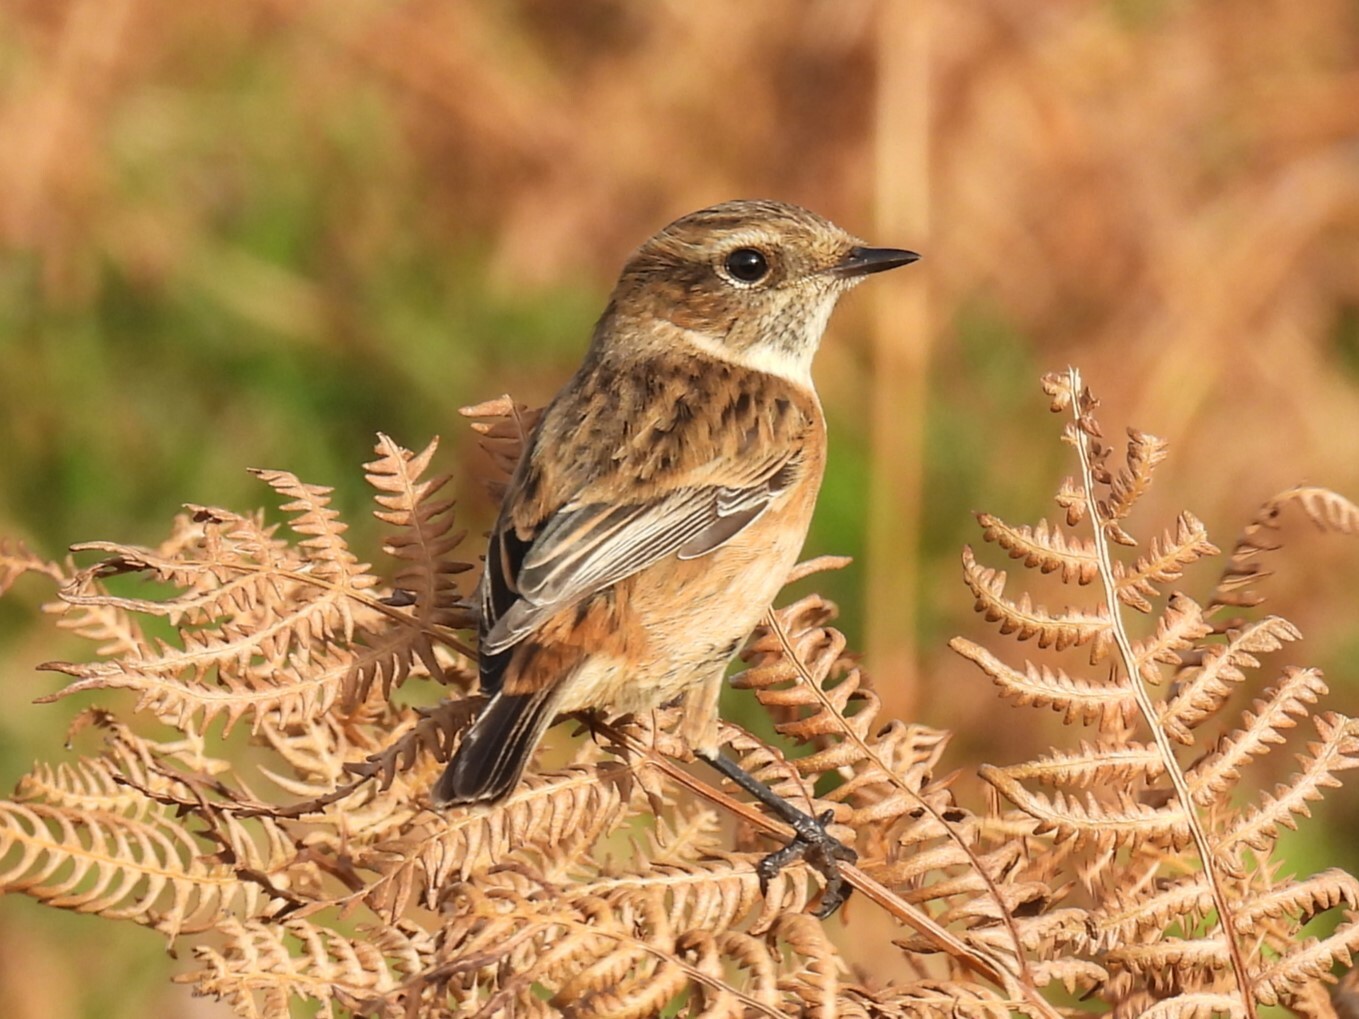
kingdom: Animalia
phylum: Chordata
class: Aves
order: Passeriformes
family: Muscicapidae
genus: Saxicola
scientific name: Saxicola rubicola
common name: European stonechat
